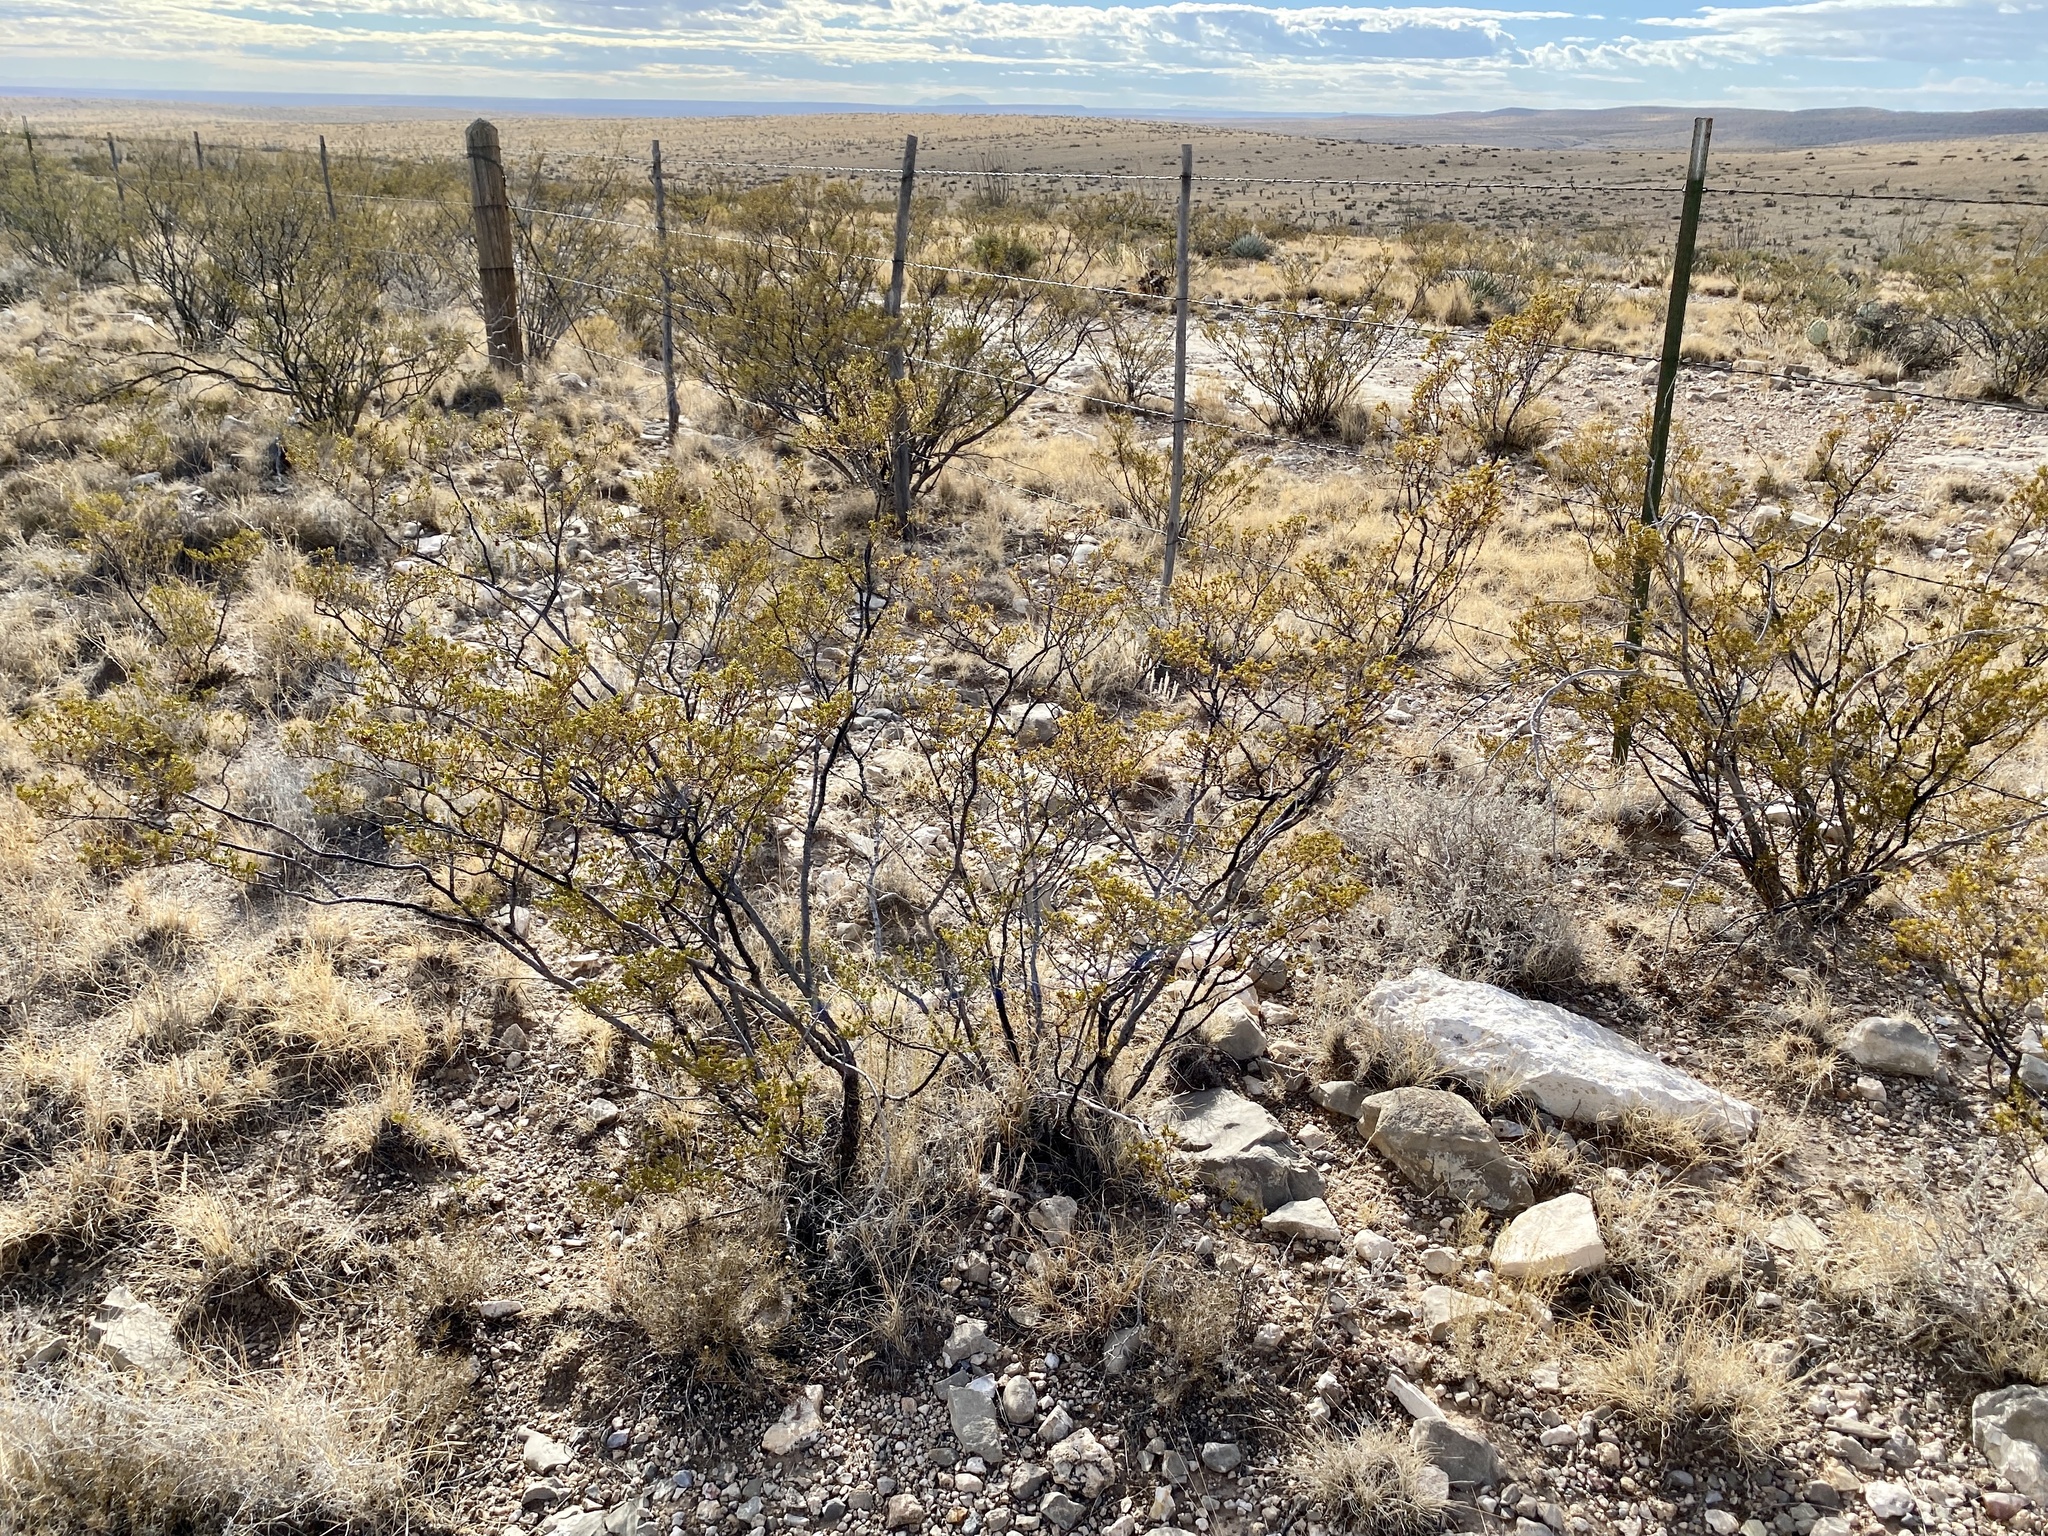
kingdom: Plantae
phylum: Tracheophyta
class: Magnoliopsida
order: Zygophyllales
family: Zygophyllaceae
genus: Larrea
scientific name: Larrea tridentata
